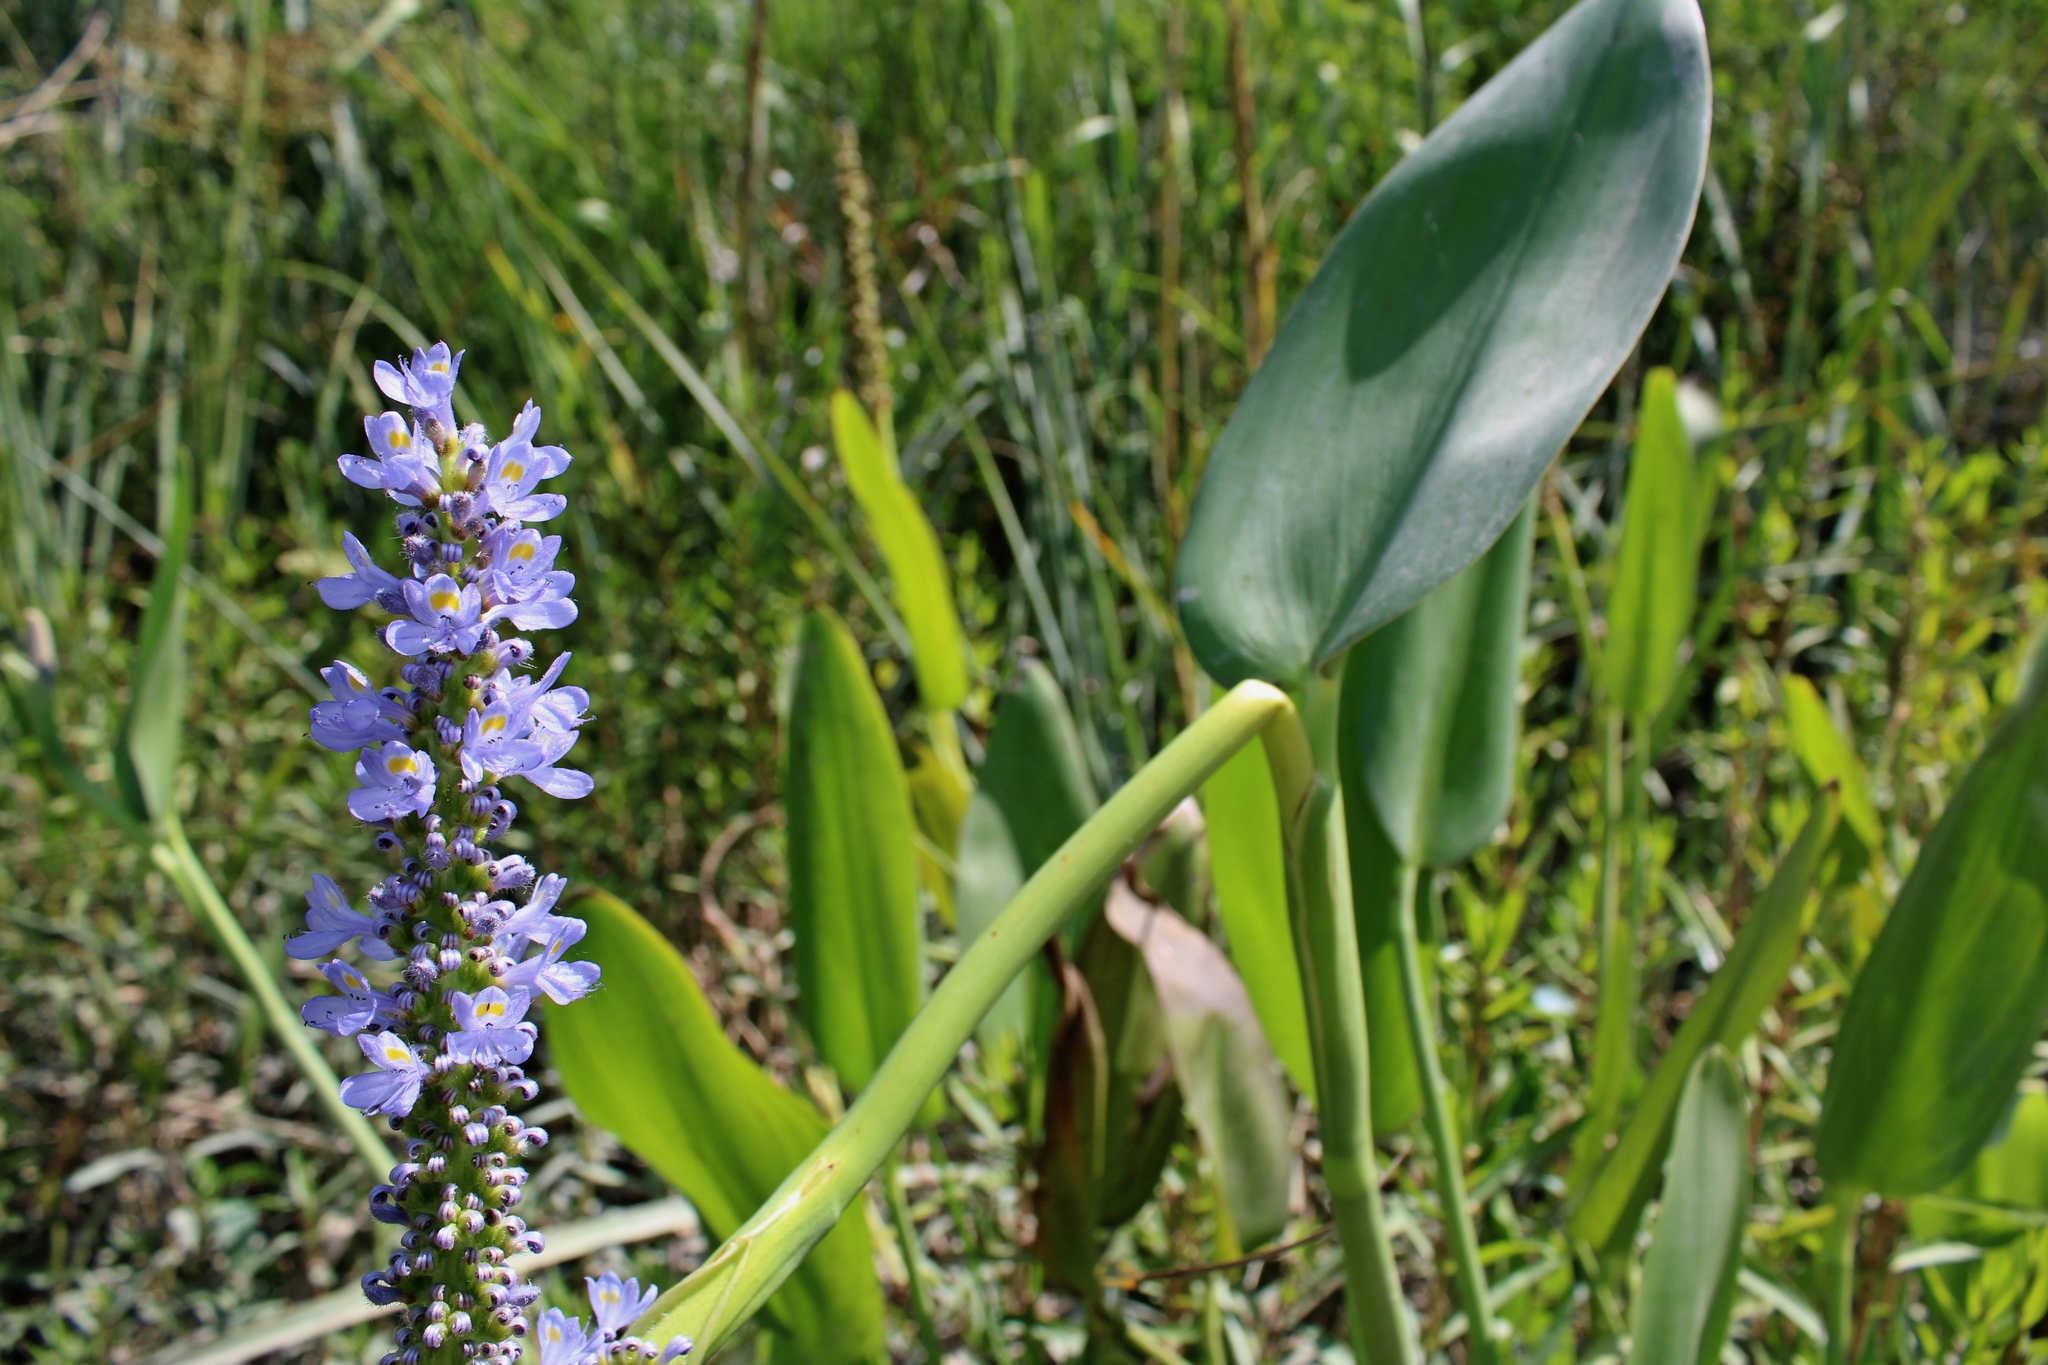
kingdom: Plantae
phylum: Tracheophyta
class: Liliopsida
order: Commelinales
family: Pontederiaceae
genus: Pontederia
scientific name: Pontederia cordata
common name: Pickerelweed
